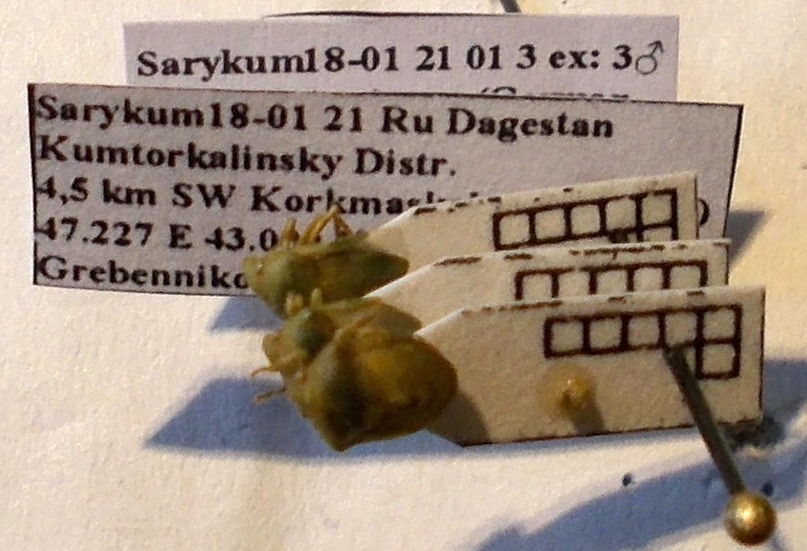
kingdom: Animalia
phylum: Arthropoda
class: Insecta
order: Hemiptera
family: Pentatomidae
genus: Tarisa
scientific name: Tarisa subspinosa
